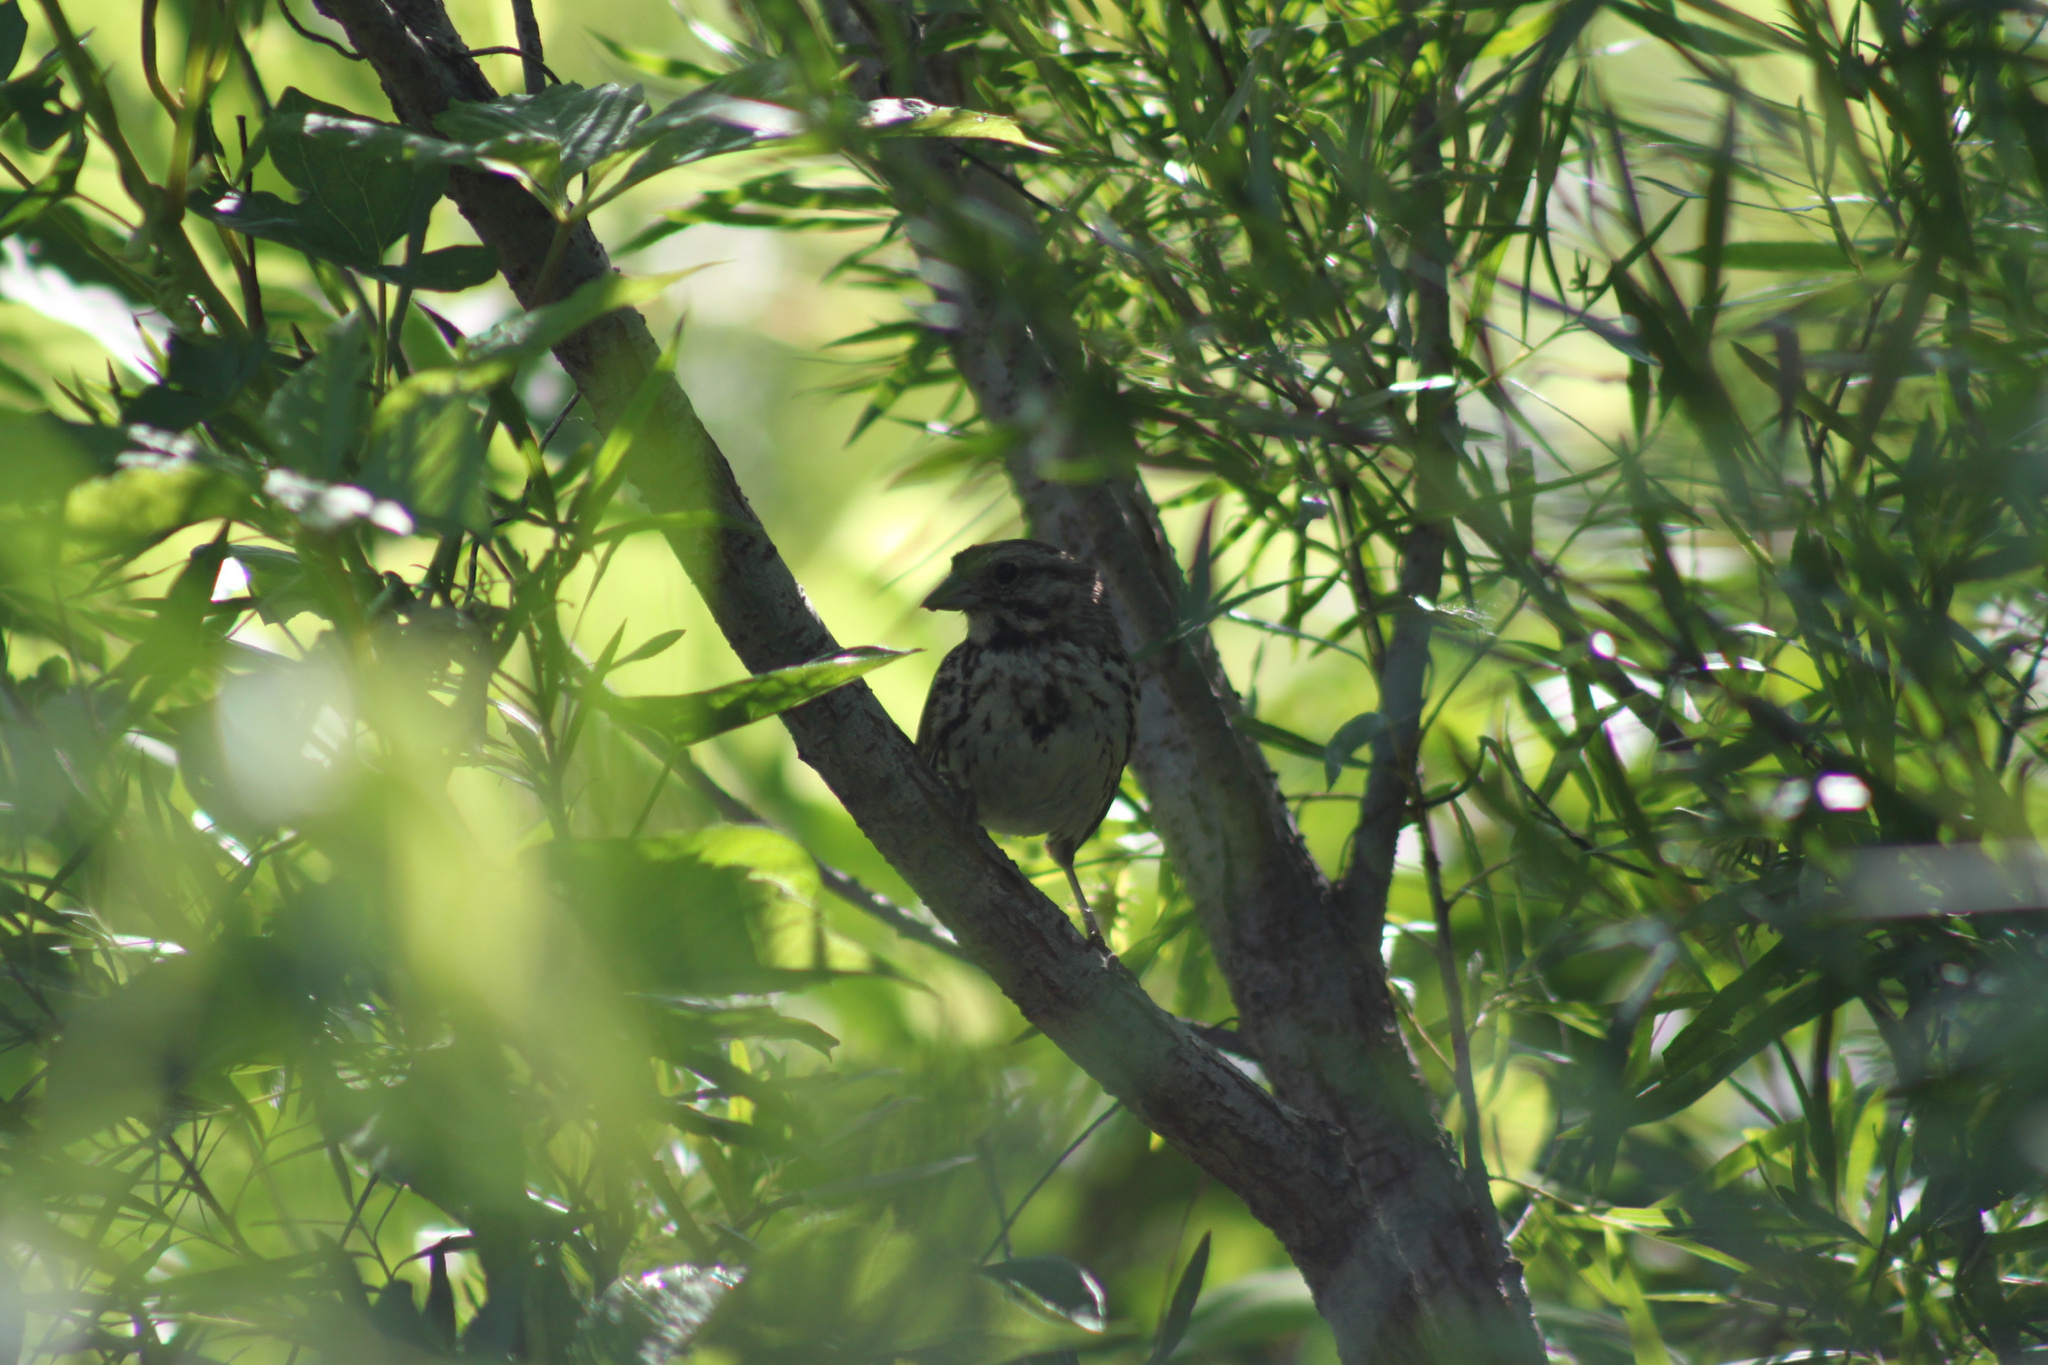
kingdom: Animalia
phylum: Chordata
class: Aves
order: Passeriformes
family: Passerellidae
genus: Melospiza
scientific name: Melospiza melodia
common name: Song sparrow
